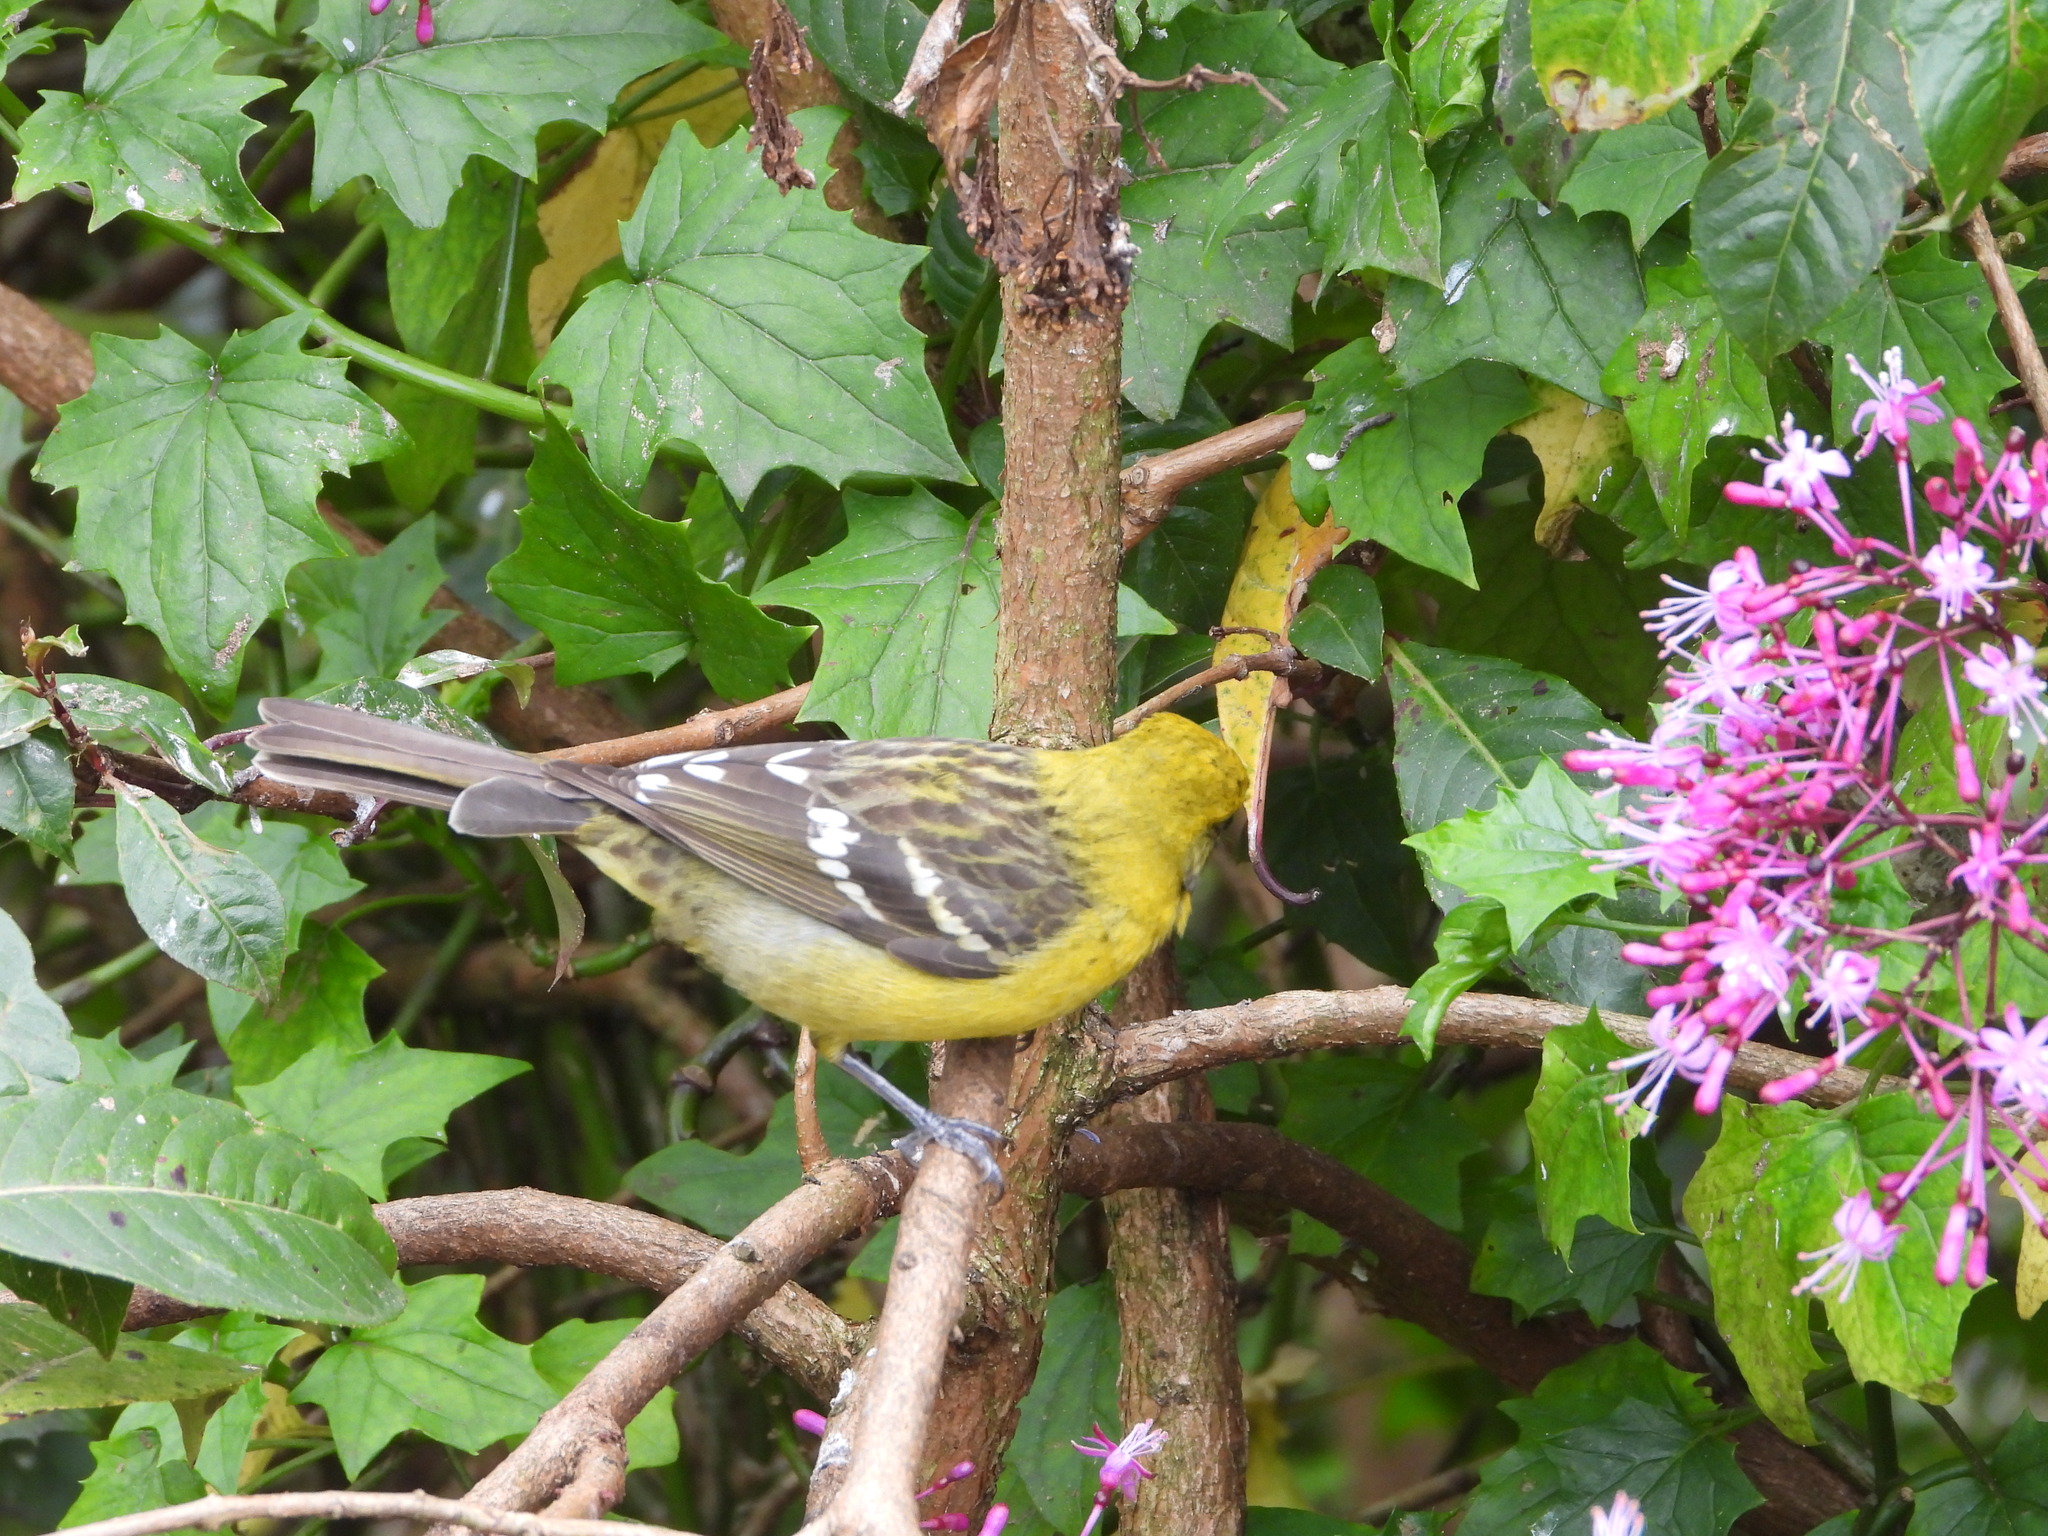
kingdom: Animalia
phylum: Chordata
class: Aves
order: Passeriformes
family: Cardinalidae
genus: Piranga
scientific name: Piranga bidentata
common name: Flame-colored tanager
